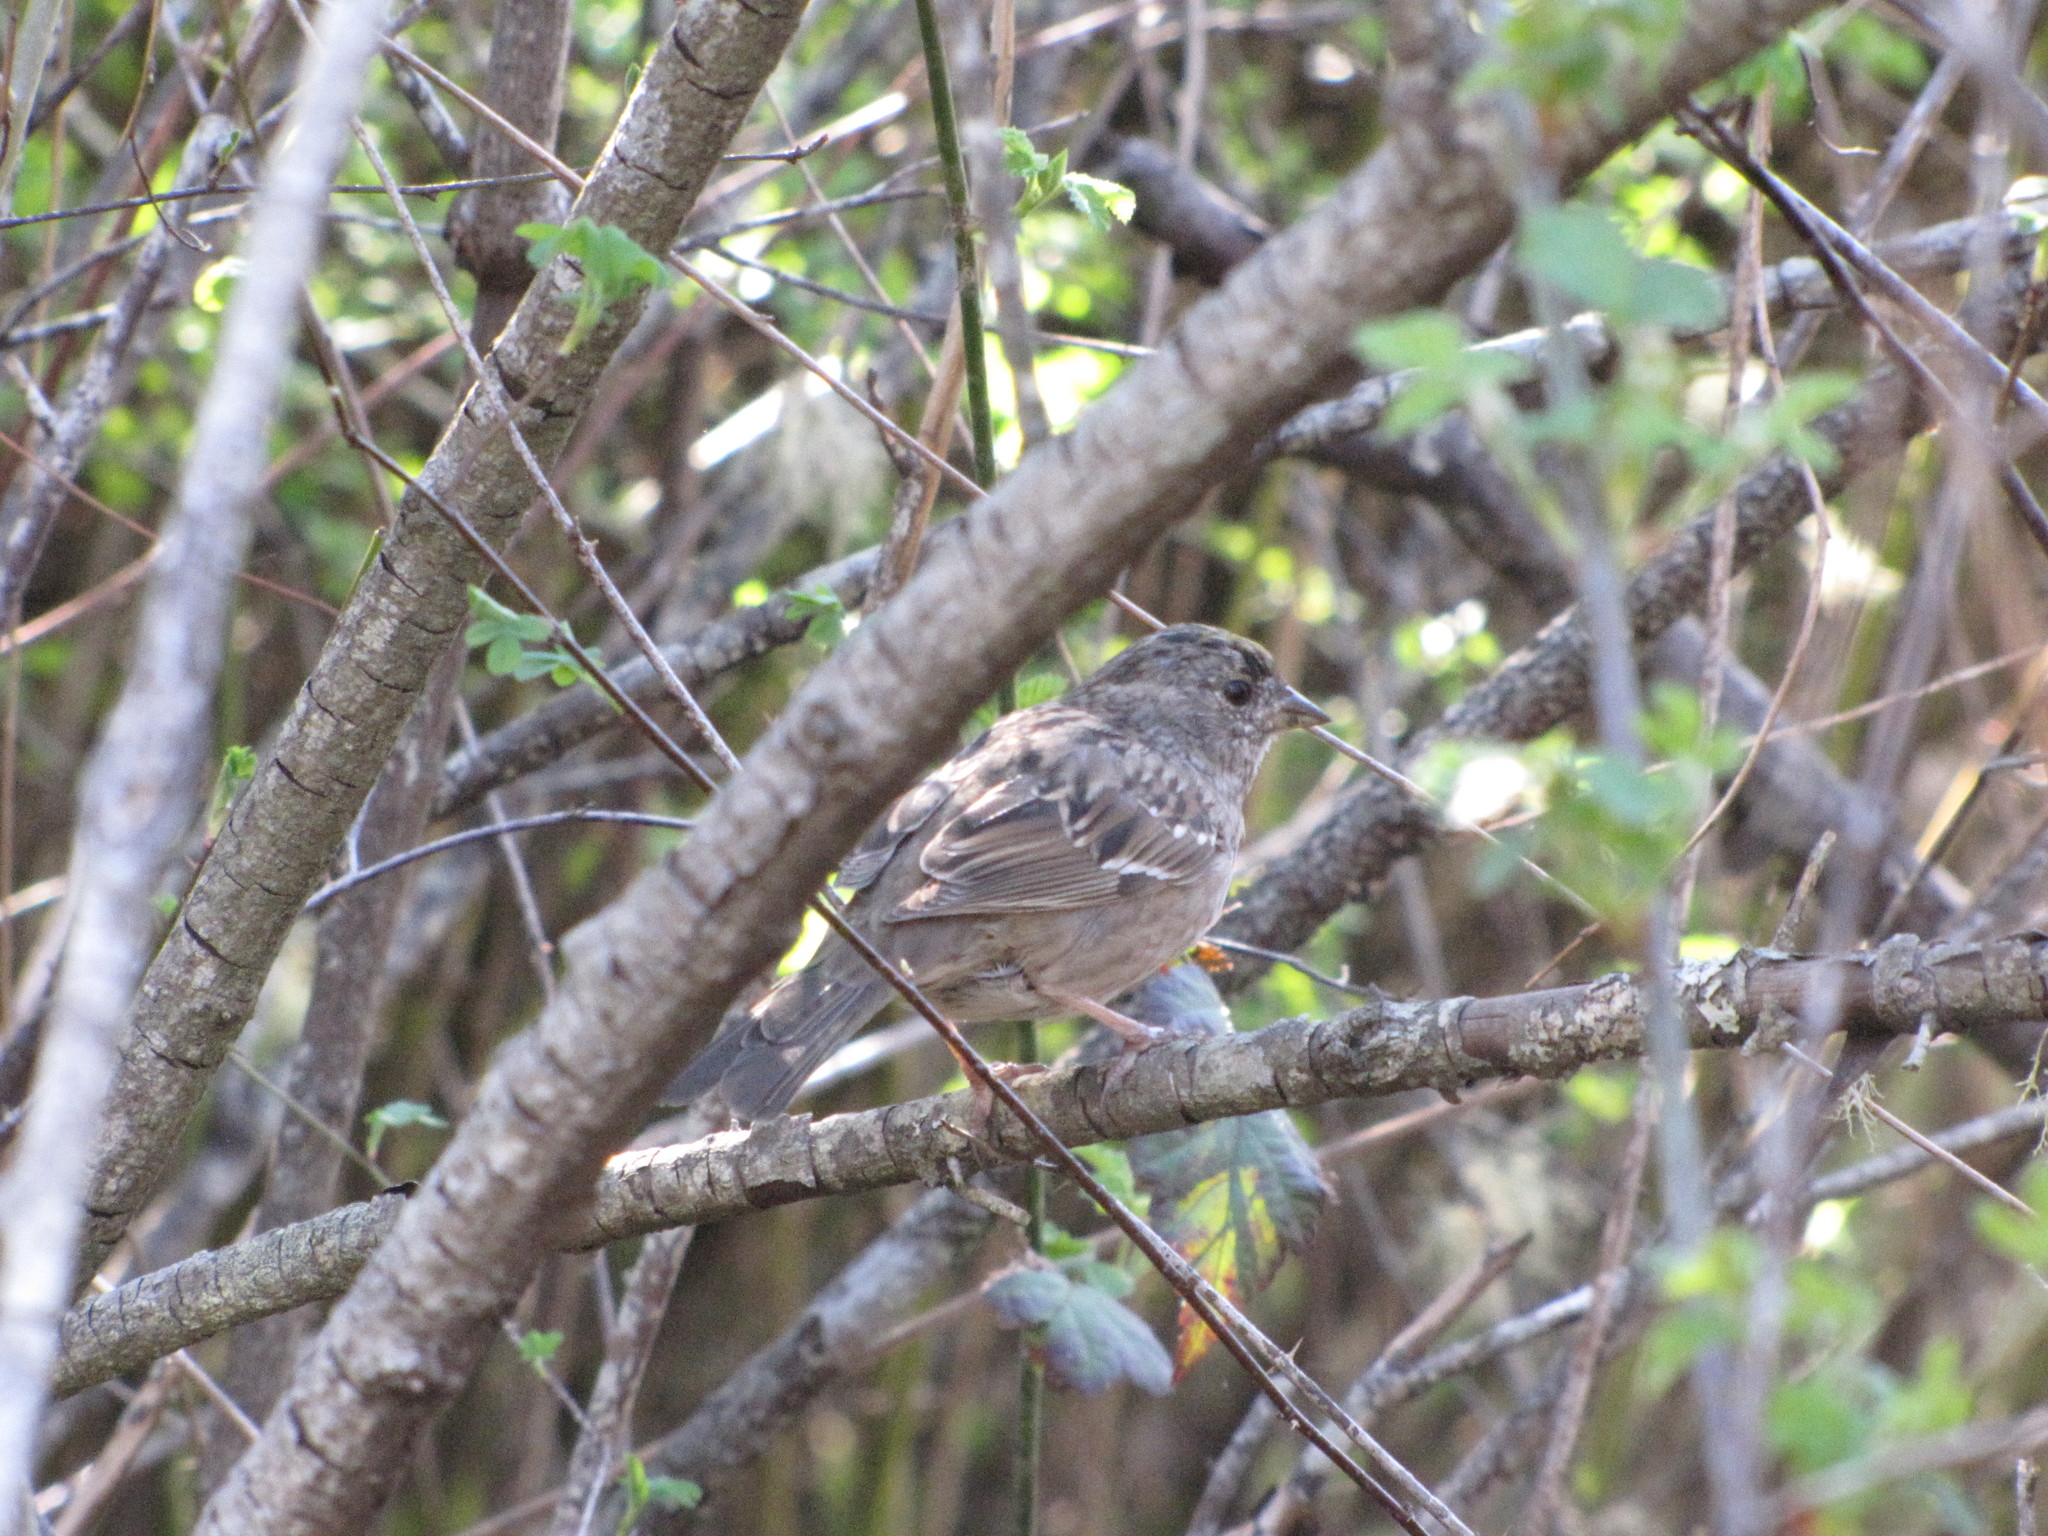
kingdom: Animalia
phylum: Chordata
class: Aves
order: Passeriformes
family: Passerellidae
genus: Zonotrichia
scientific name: Zonotrichia atricapilla
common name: Golden-crowned sparrow
